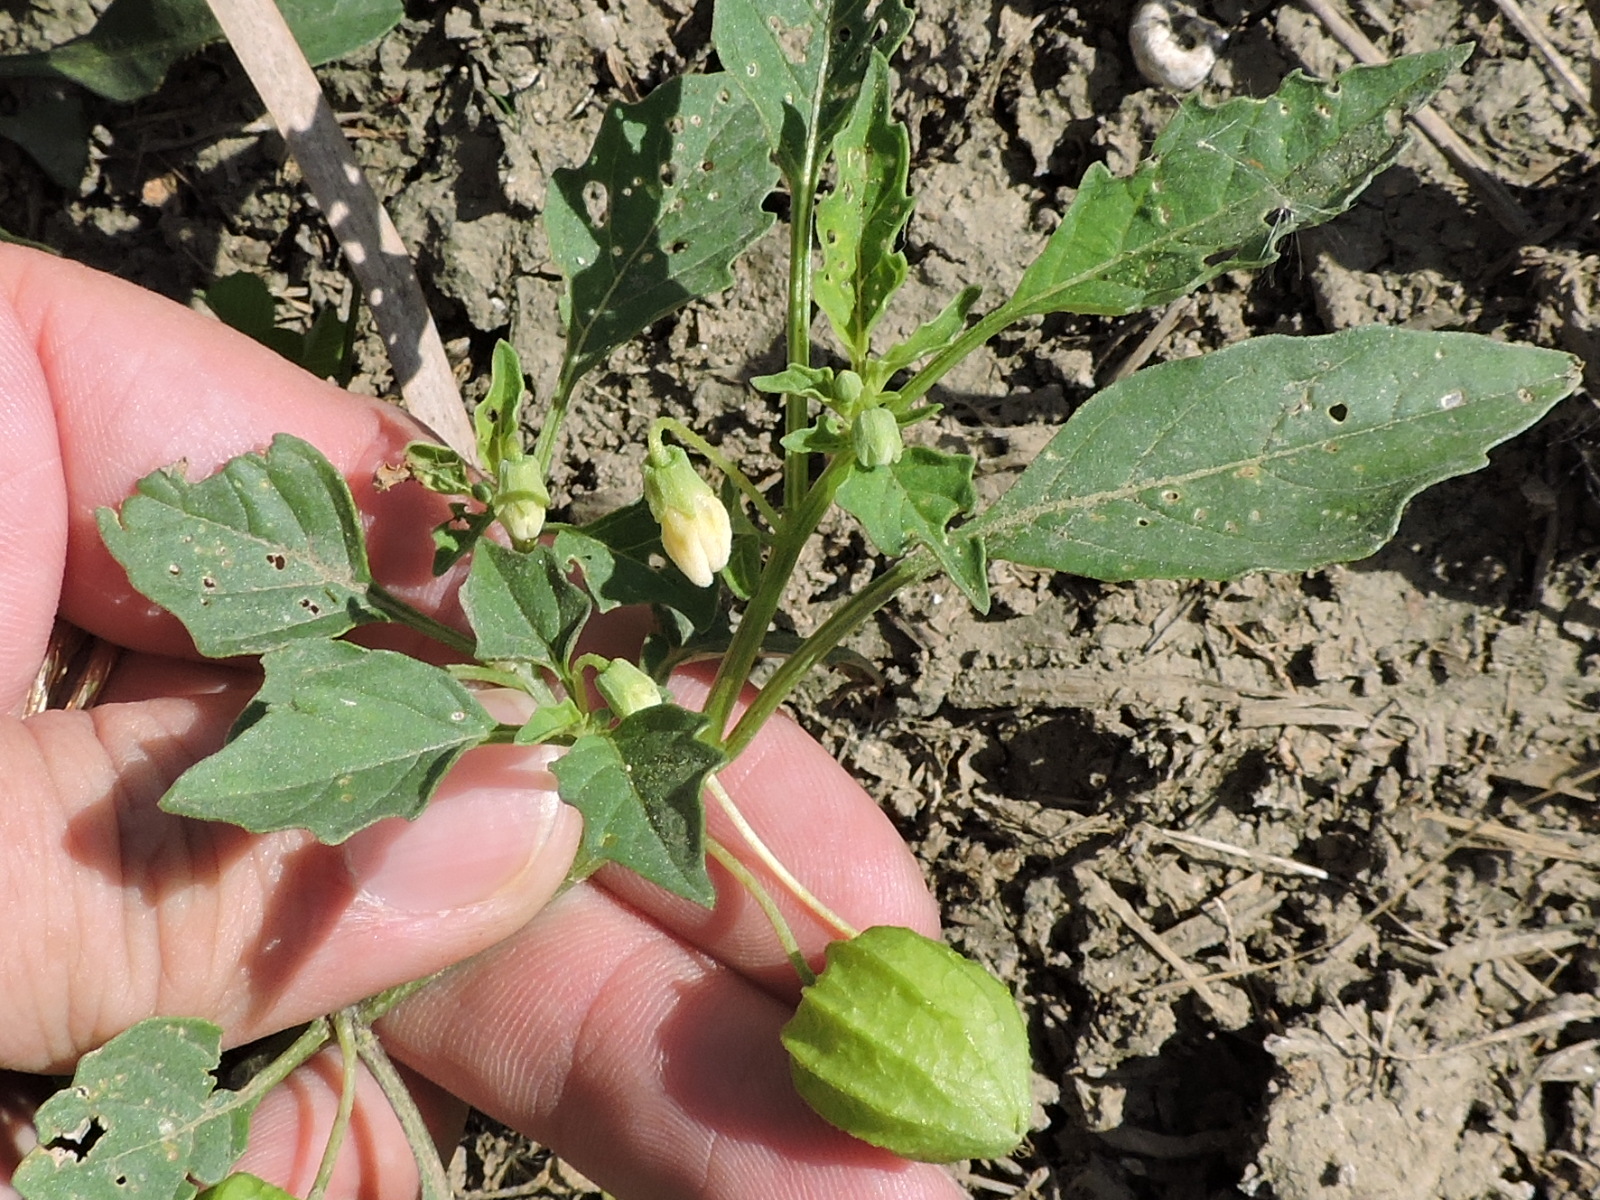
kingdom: Plantae
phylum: Tracheophyta
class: Magnoliopsida
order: Solanales
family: Solanaceae
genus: Physalis
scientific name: Physalis angulata
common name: Angular winter-cherry
